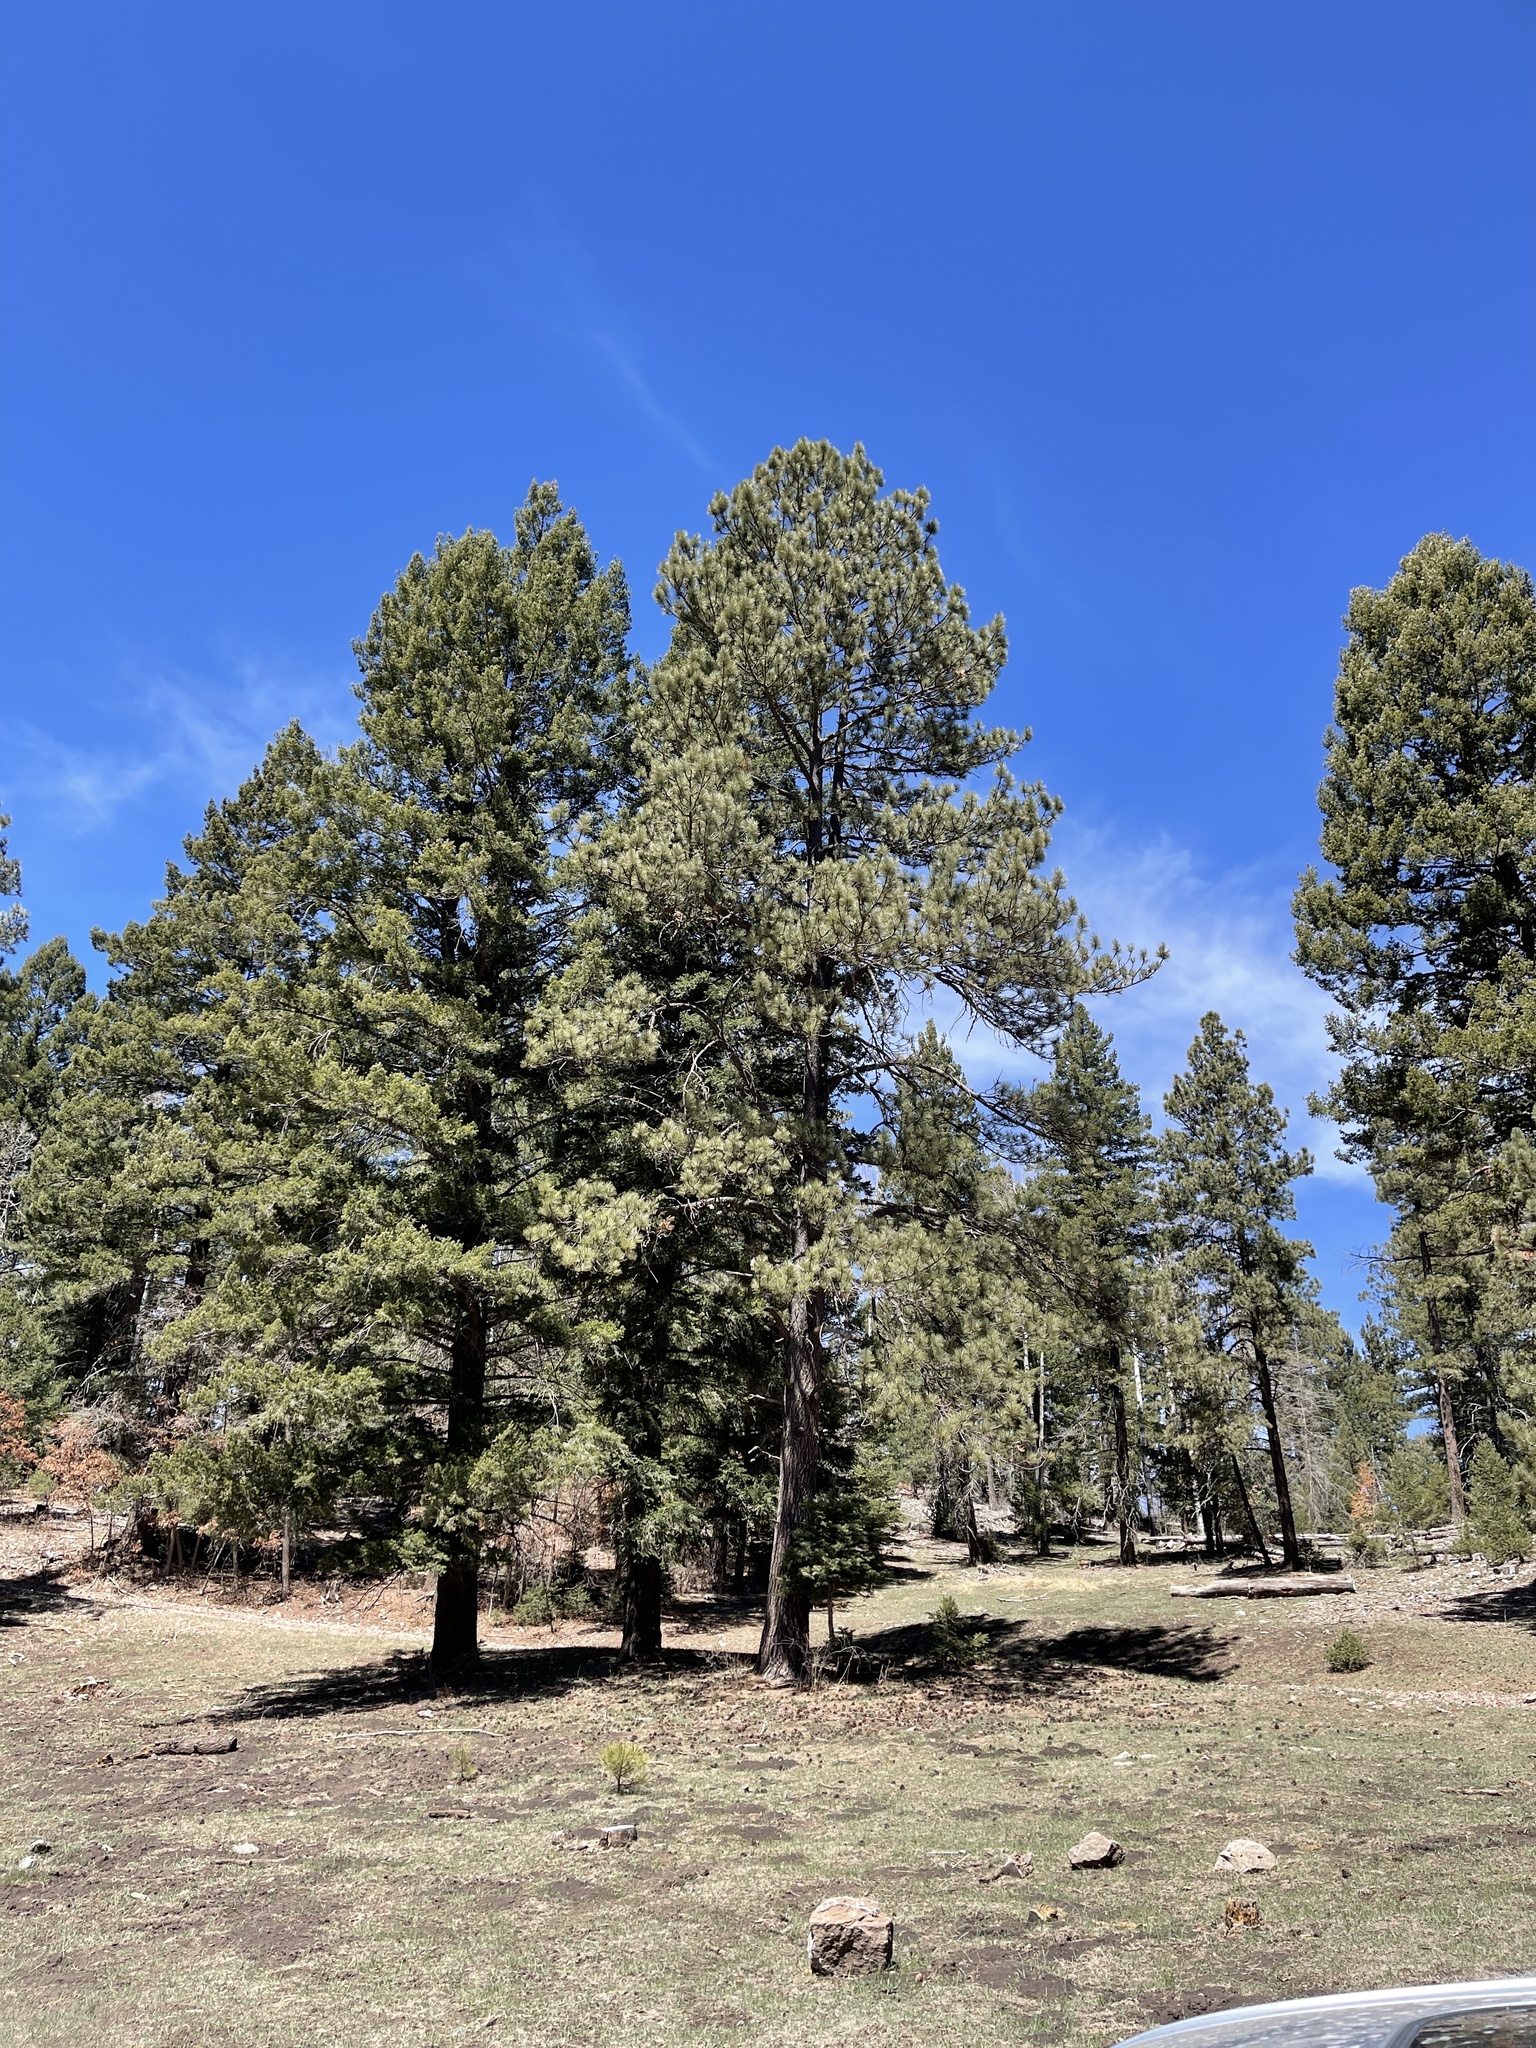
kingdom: Plantae
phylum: Tracheophyta
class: Pinopsida
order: Pinales
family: Pinaceae
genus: Pinus
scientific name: Pinus ponderosa
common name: Western yellow-pine
